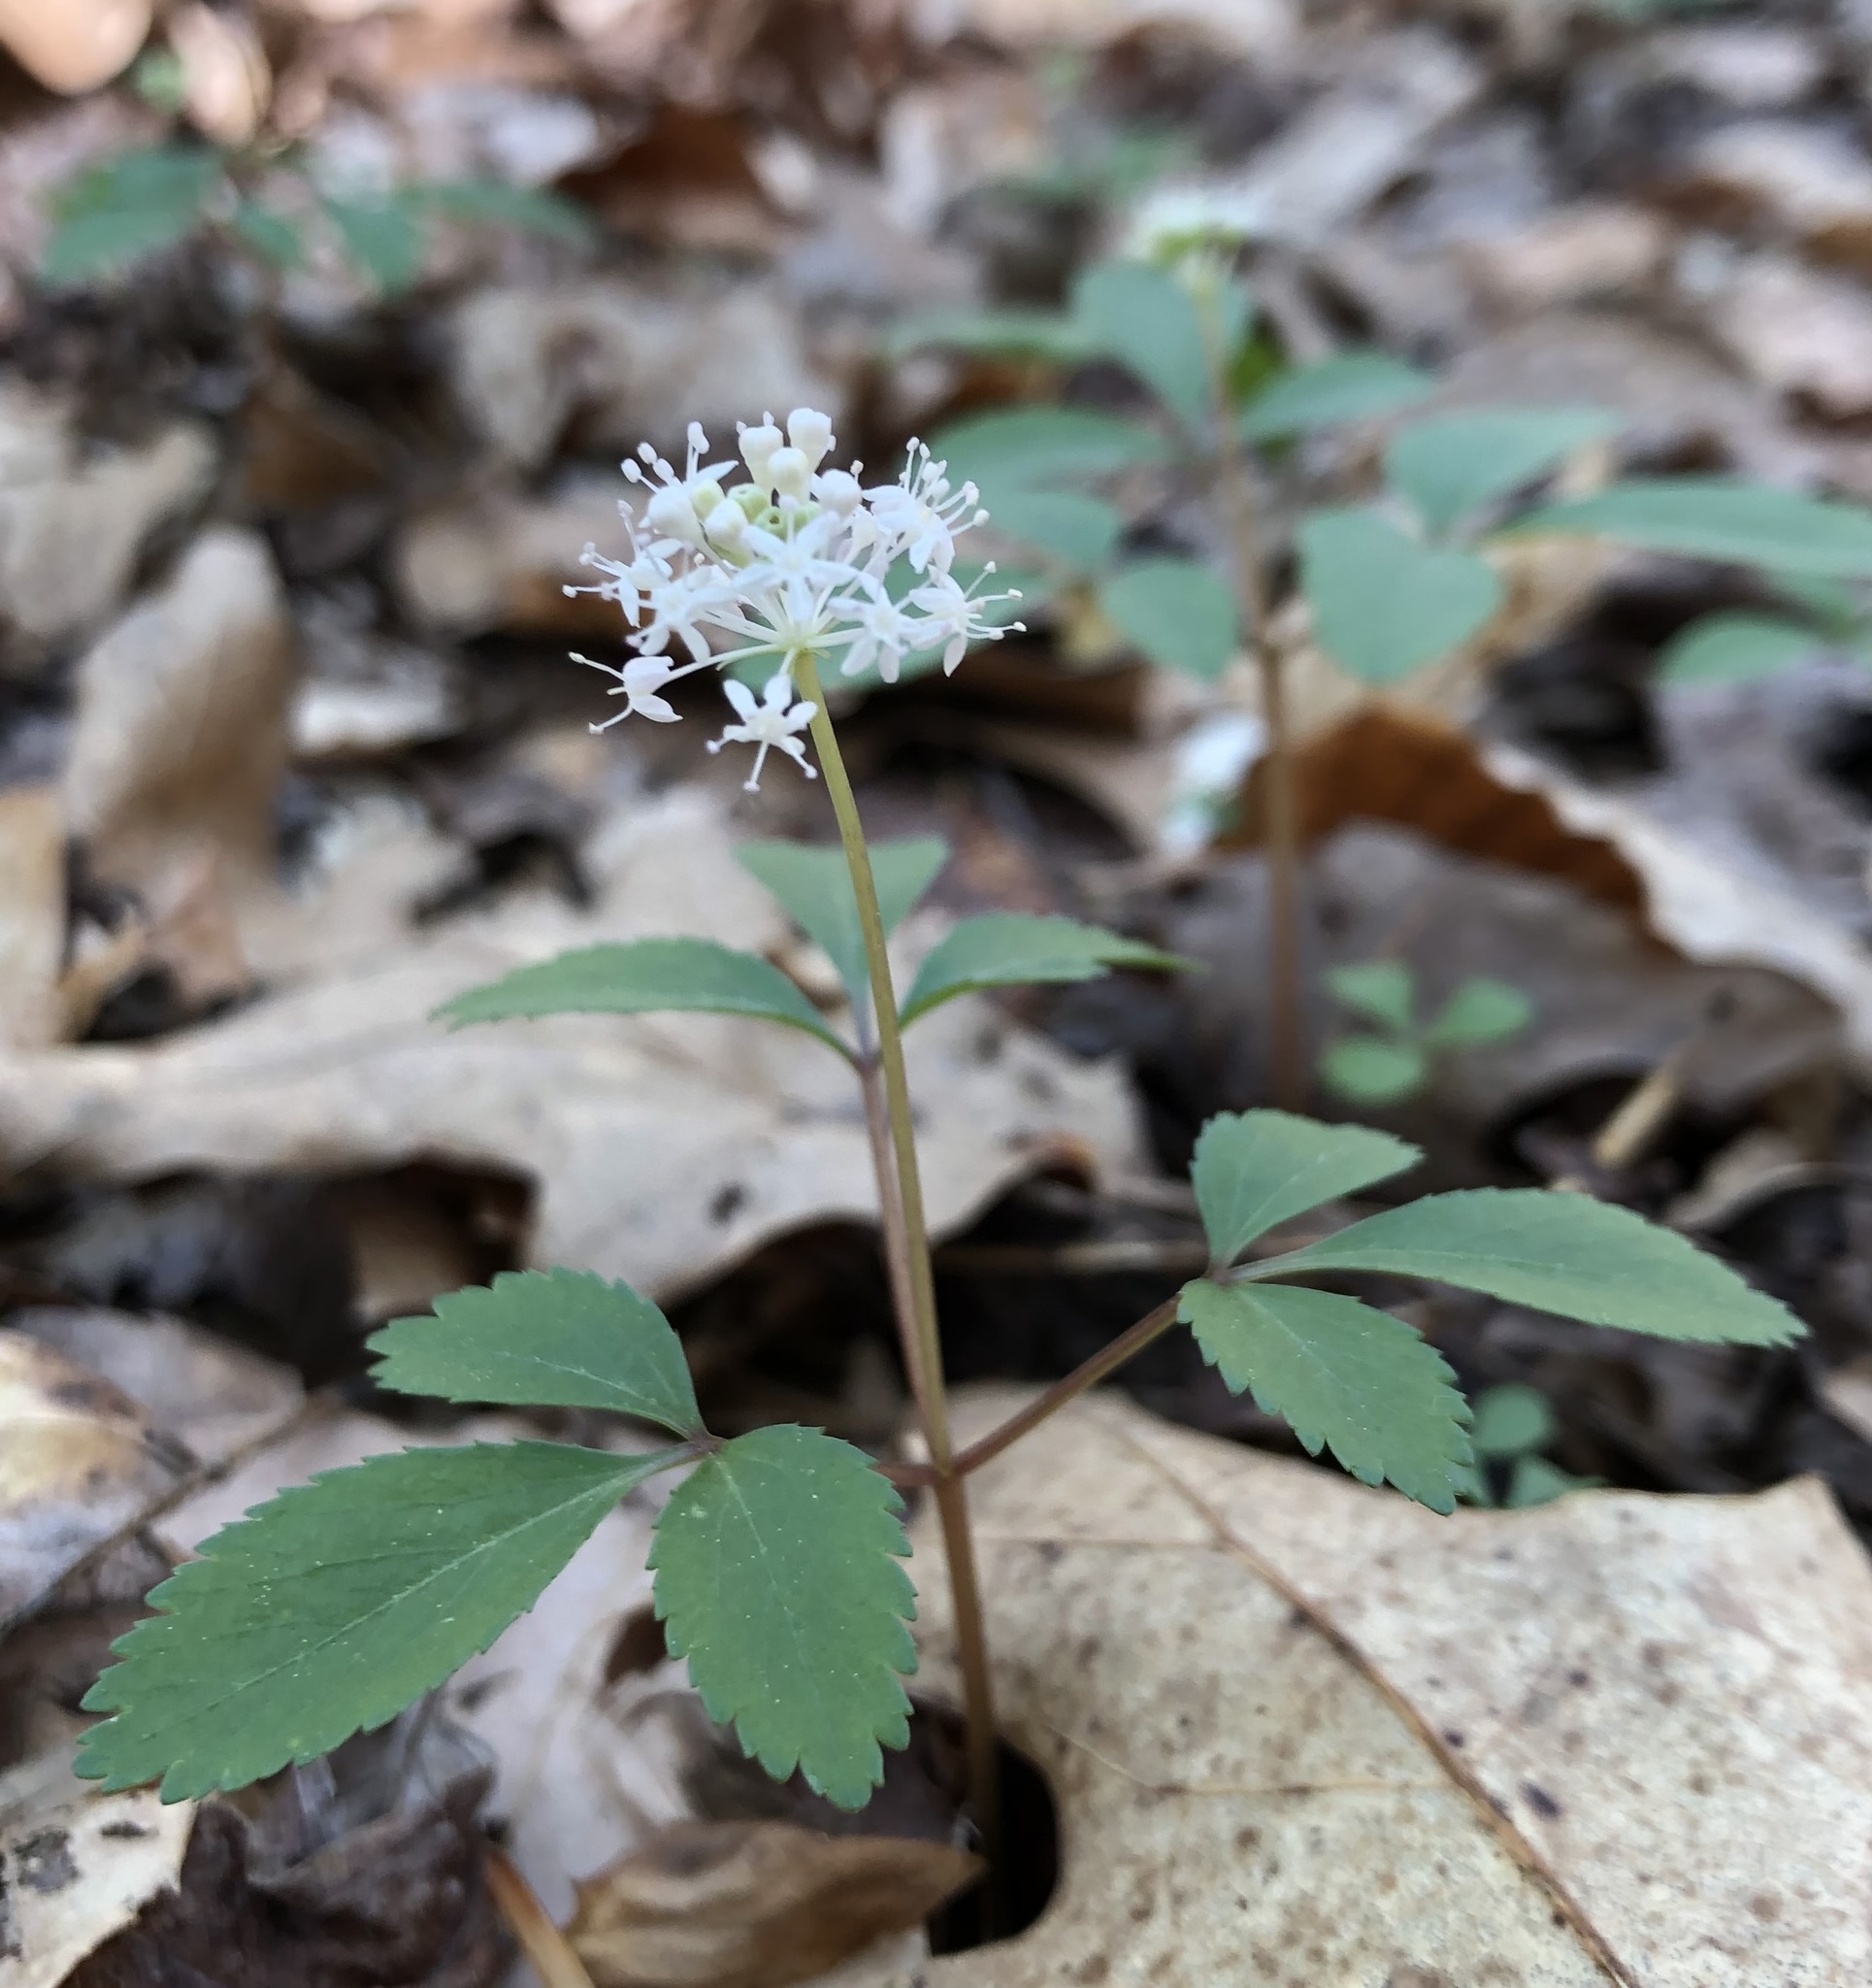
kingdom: Plantae
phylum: Tracheophyta
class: Magnoliopsida
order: Apiales
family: Araliaceae
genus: Panax
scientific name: Panax trifolius
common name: Dwarf ginseng
